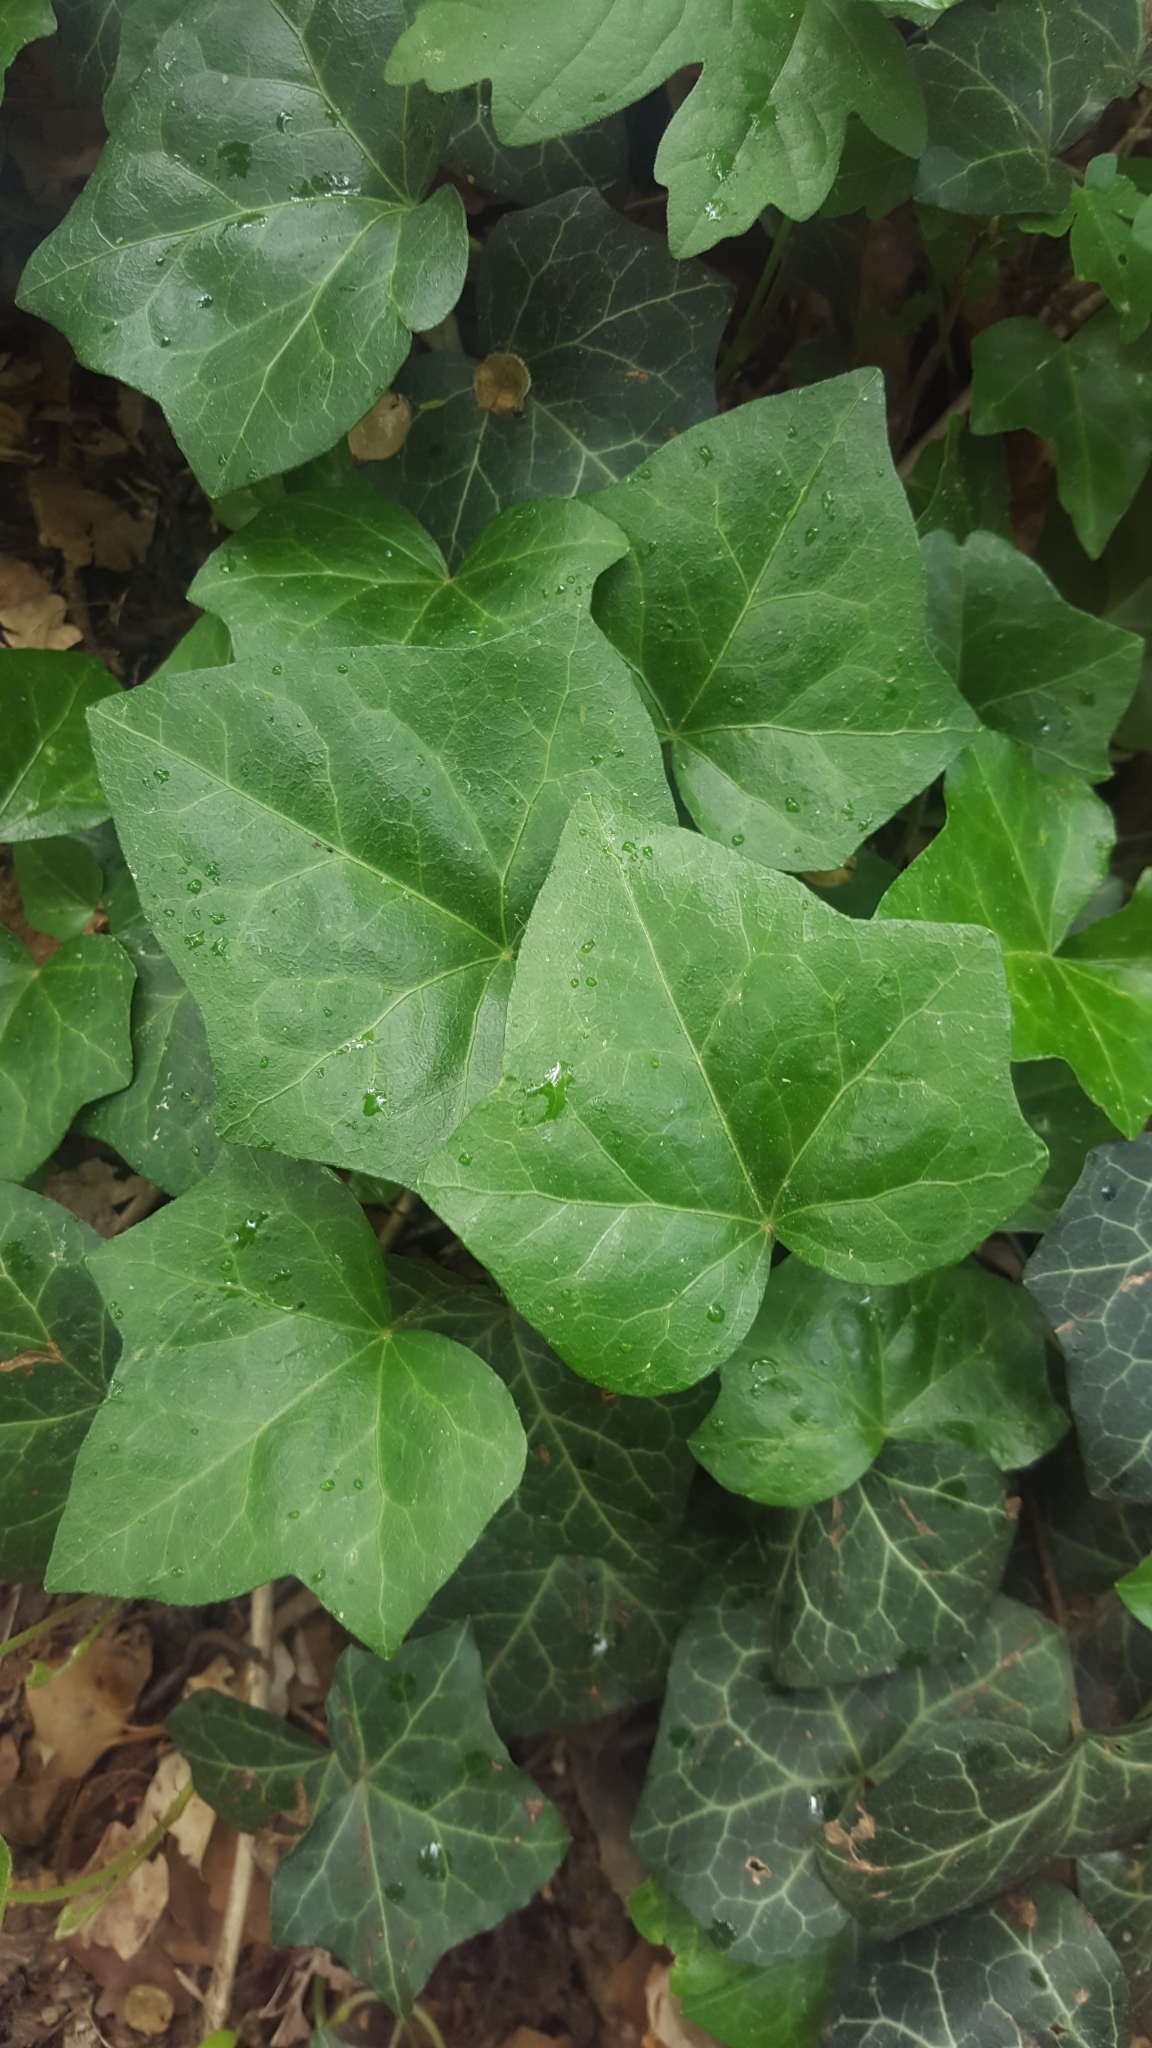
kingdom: Plantae
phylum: Tracheophyta
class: Magnoliopsida
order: Apiales
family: Araliaceae
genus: Hedera
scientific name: Hedera helix
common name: Ivy
